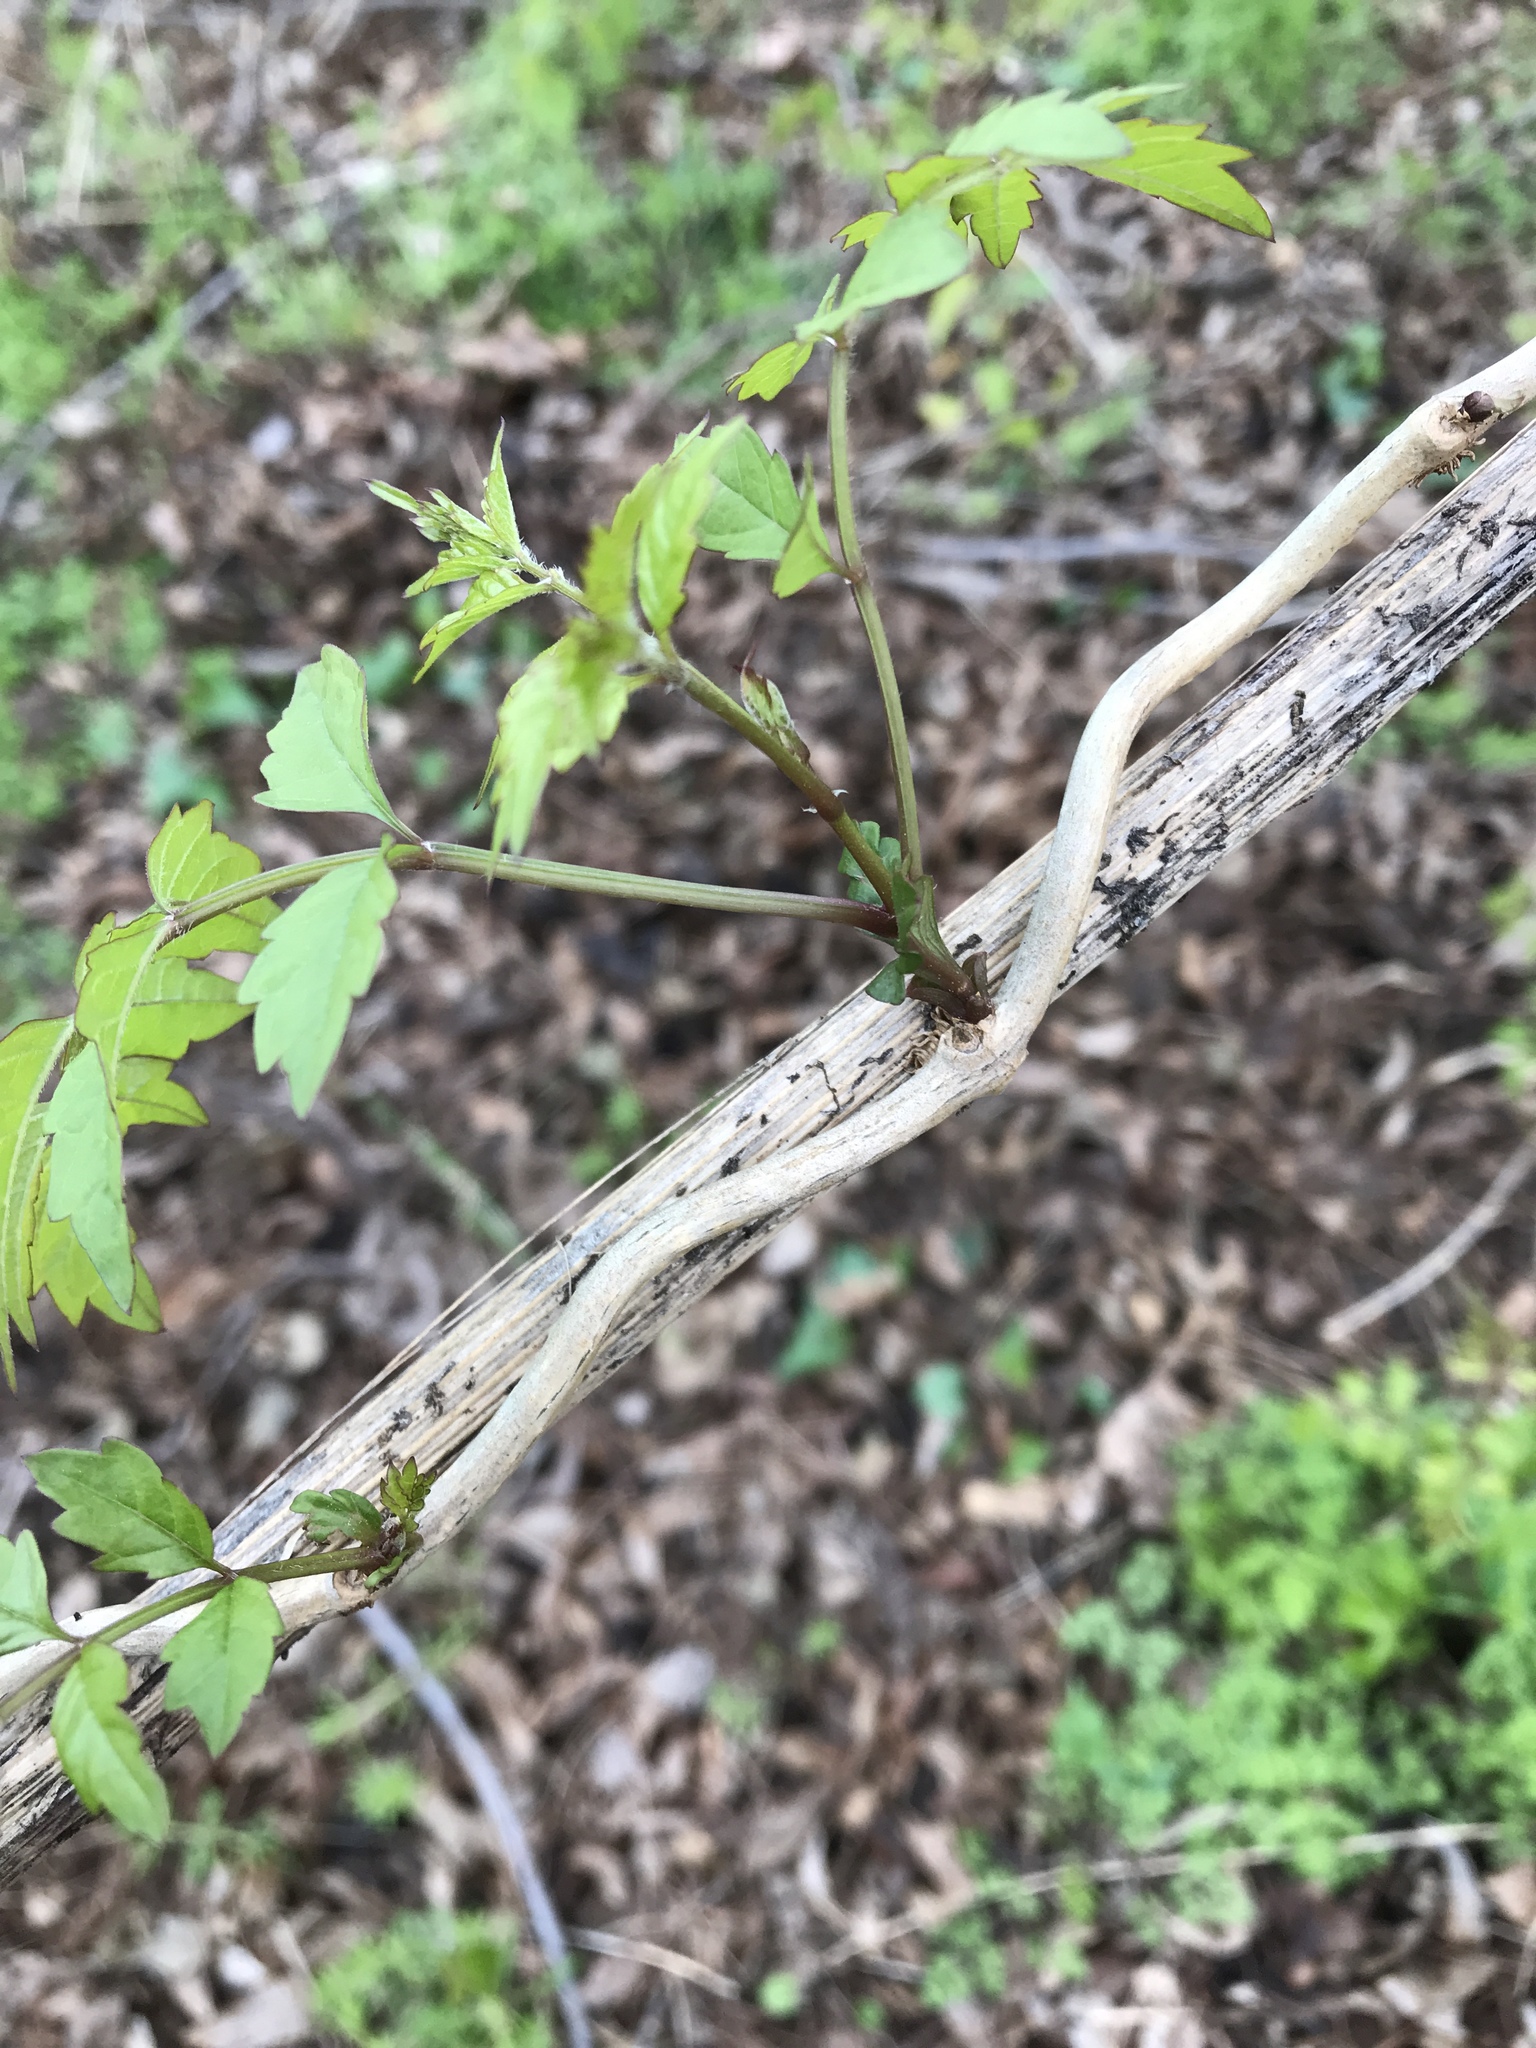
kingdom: Plantae
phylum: Tracheophyta
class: Magnoliopsida
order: Lamiales
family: Bignoniaceae
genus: Campsis
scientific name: Campsis radicans
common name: Trumpet-creeper
